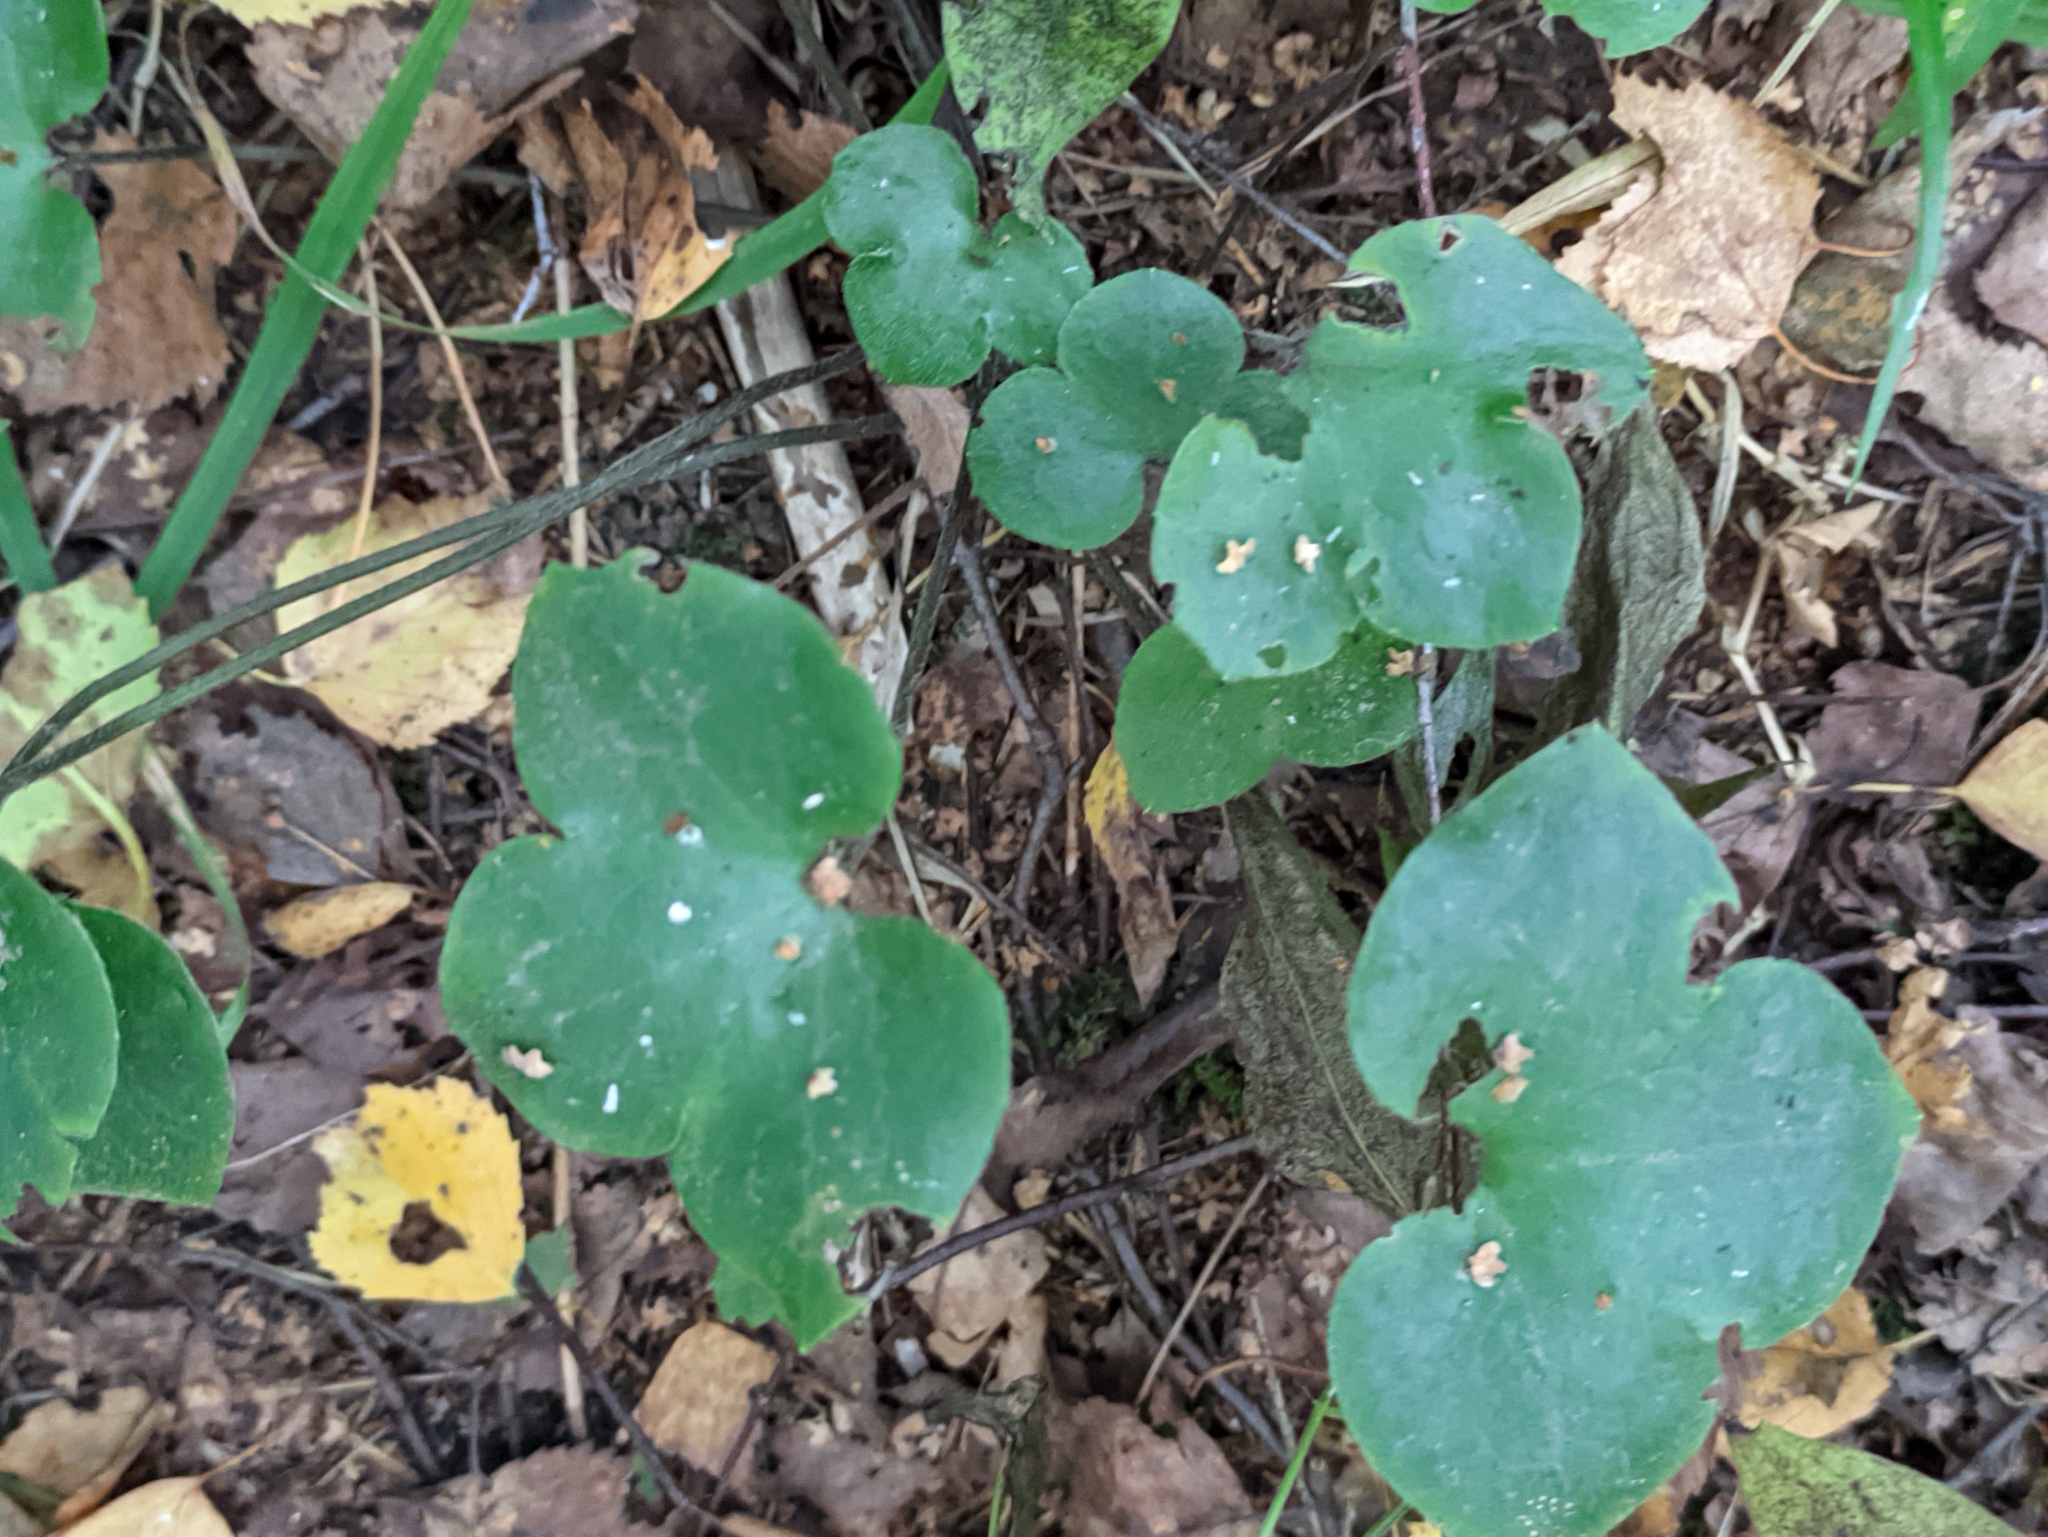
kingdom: Plantae
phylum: Tracheophyta
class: Magnoliopsida
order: Ranunculales
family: Ranunculaceae
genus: Hepatica
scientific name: Hepatica nobilis
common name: Liverleaf
